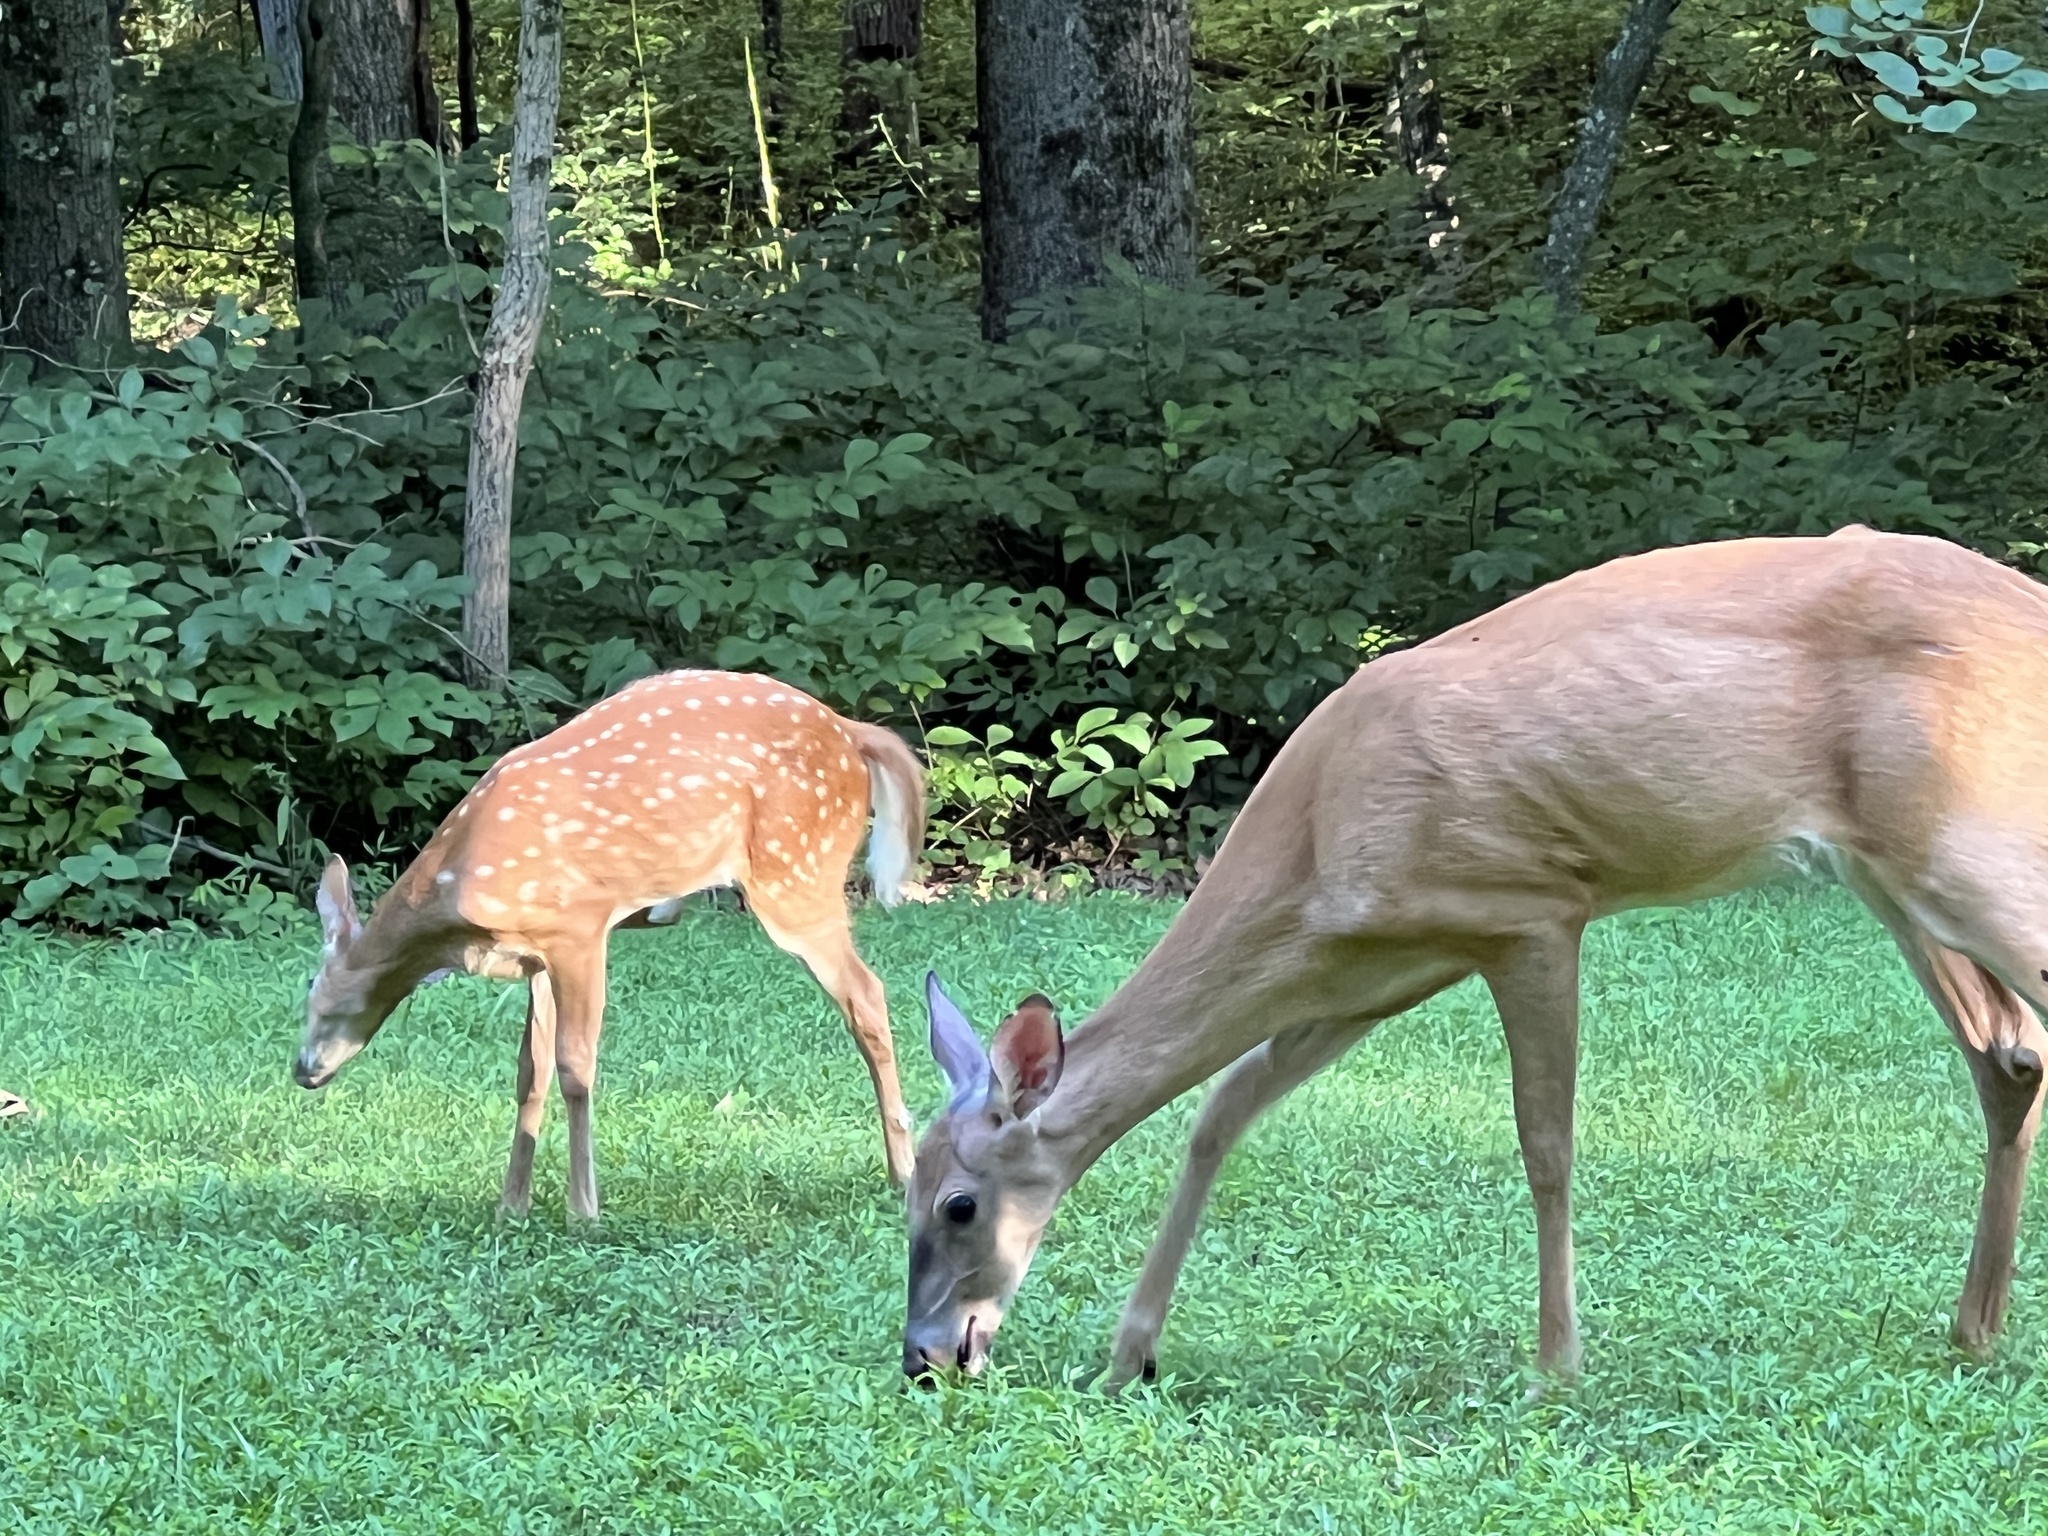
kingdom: Animalia
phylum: Chordata
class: Mammalia
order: Artiodactyla
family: Cervidae
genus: Odocoileus
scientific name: Odocoileus virginianus
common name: White-tailed deer
